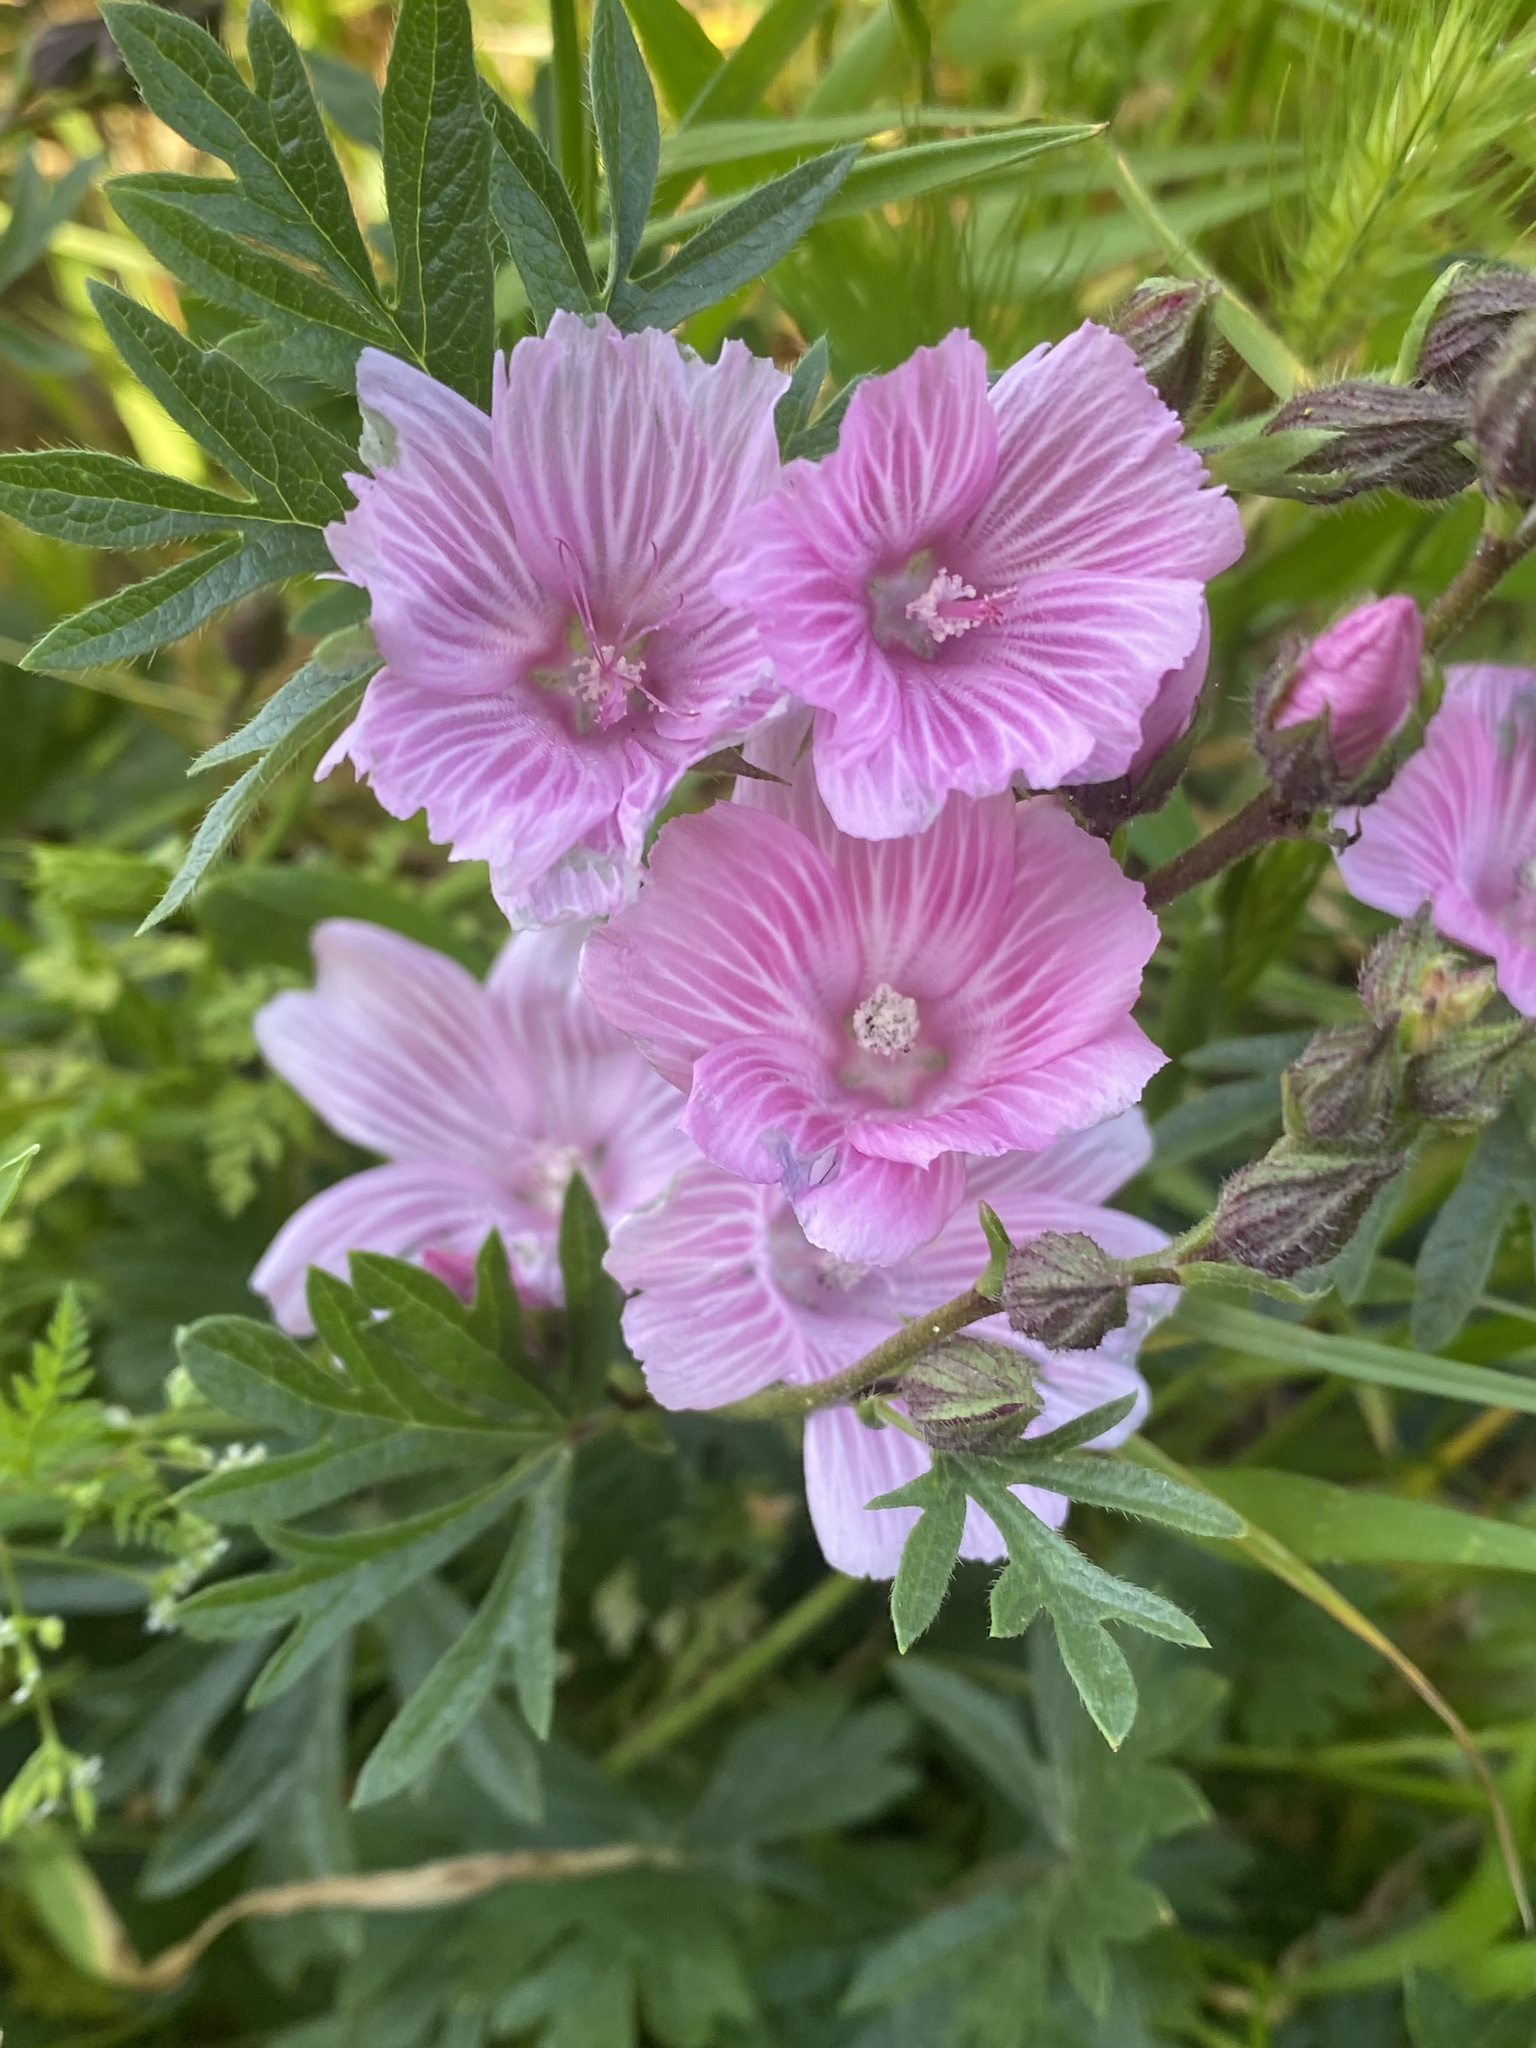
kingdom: Plantae
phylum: Tracheophyta
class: Magnoliopsida
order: Malvales
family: Malvaceae
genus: Sidalcea
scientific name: Sidalcea malviflora
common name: Greek mallow
